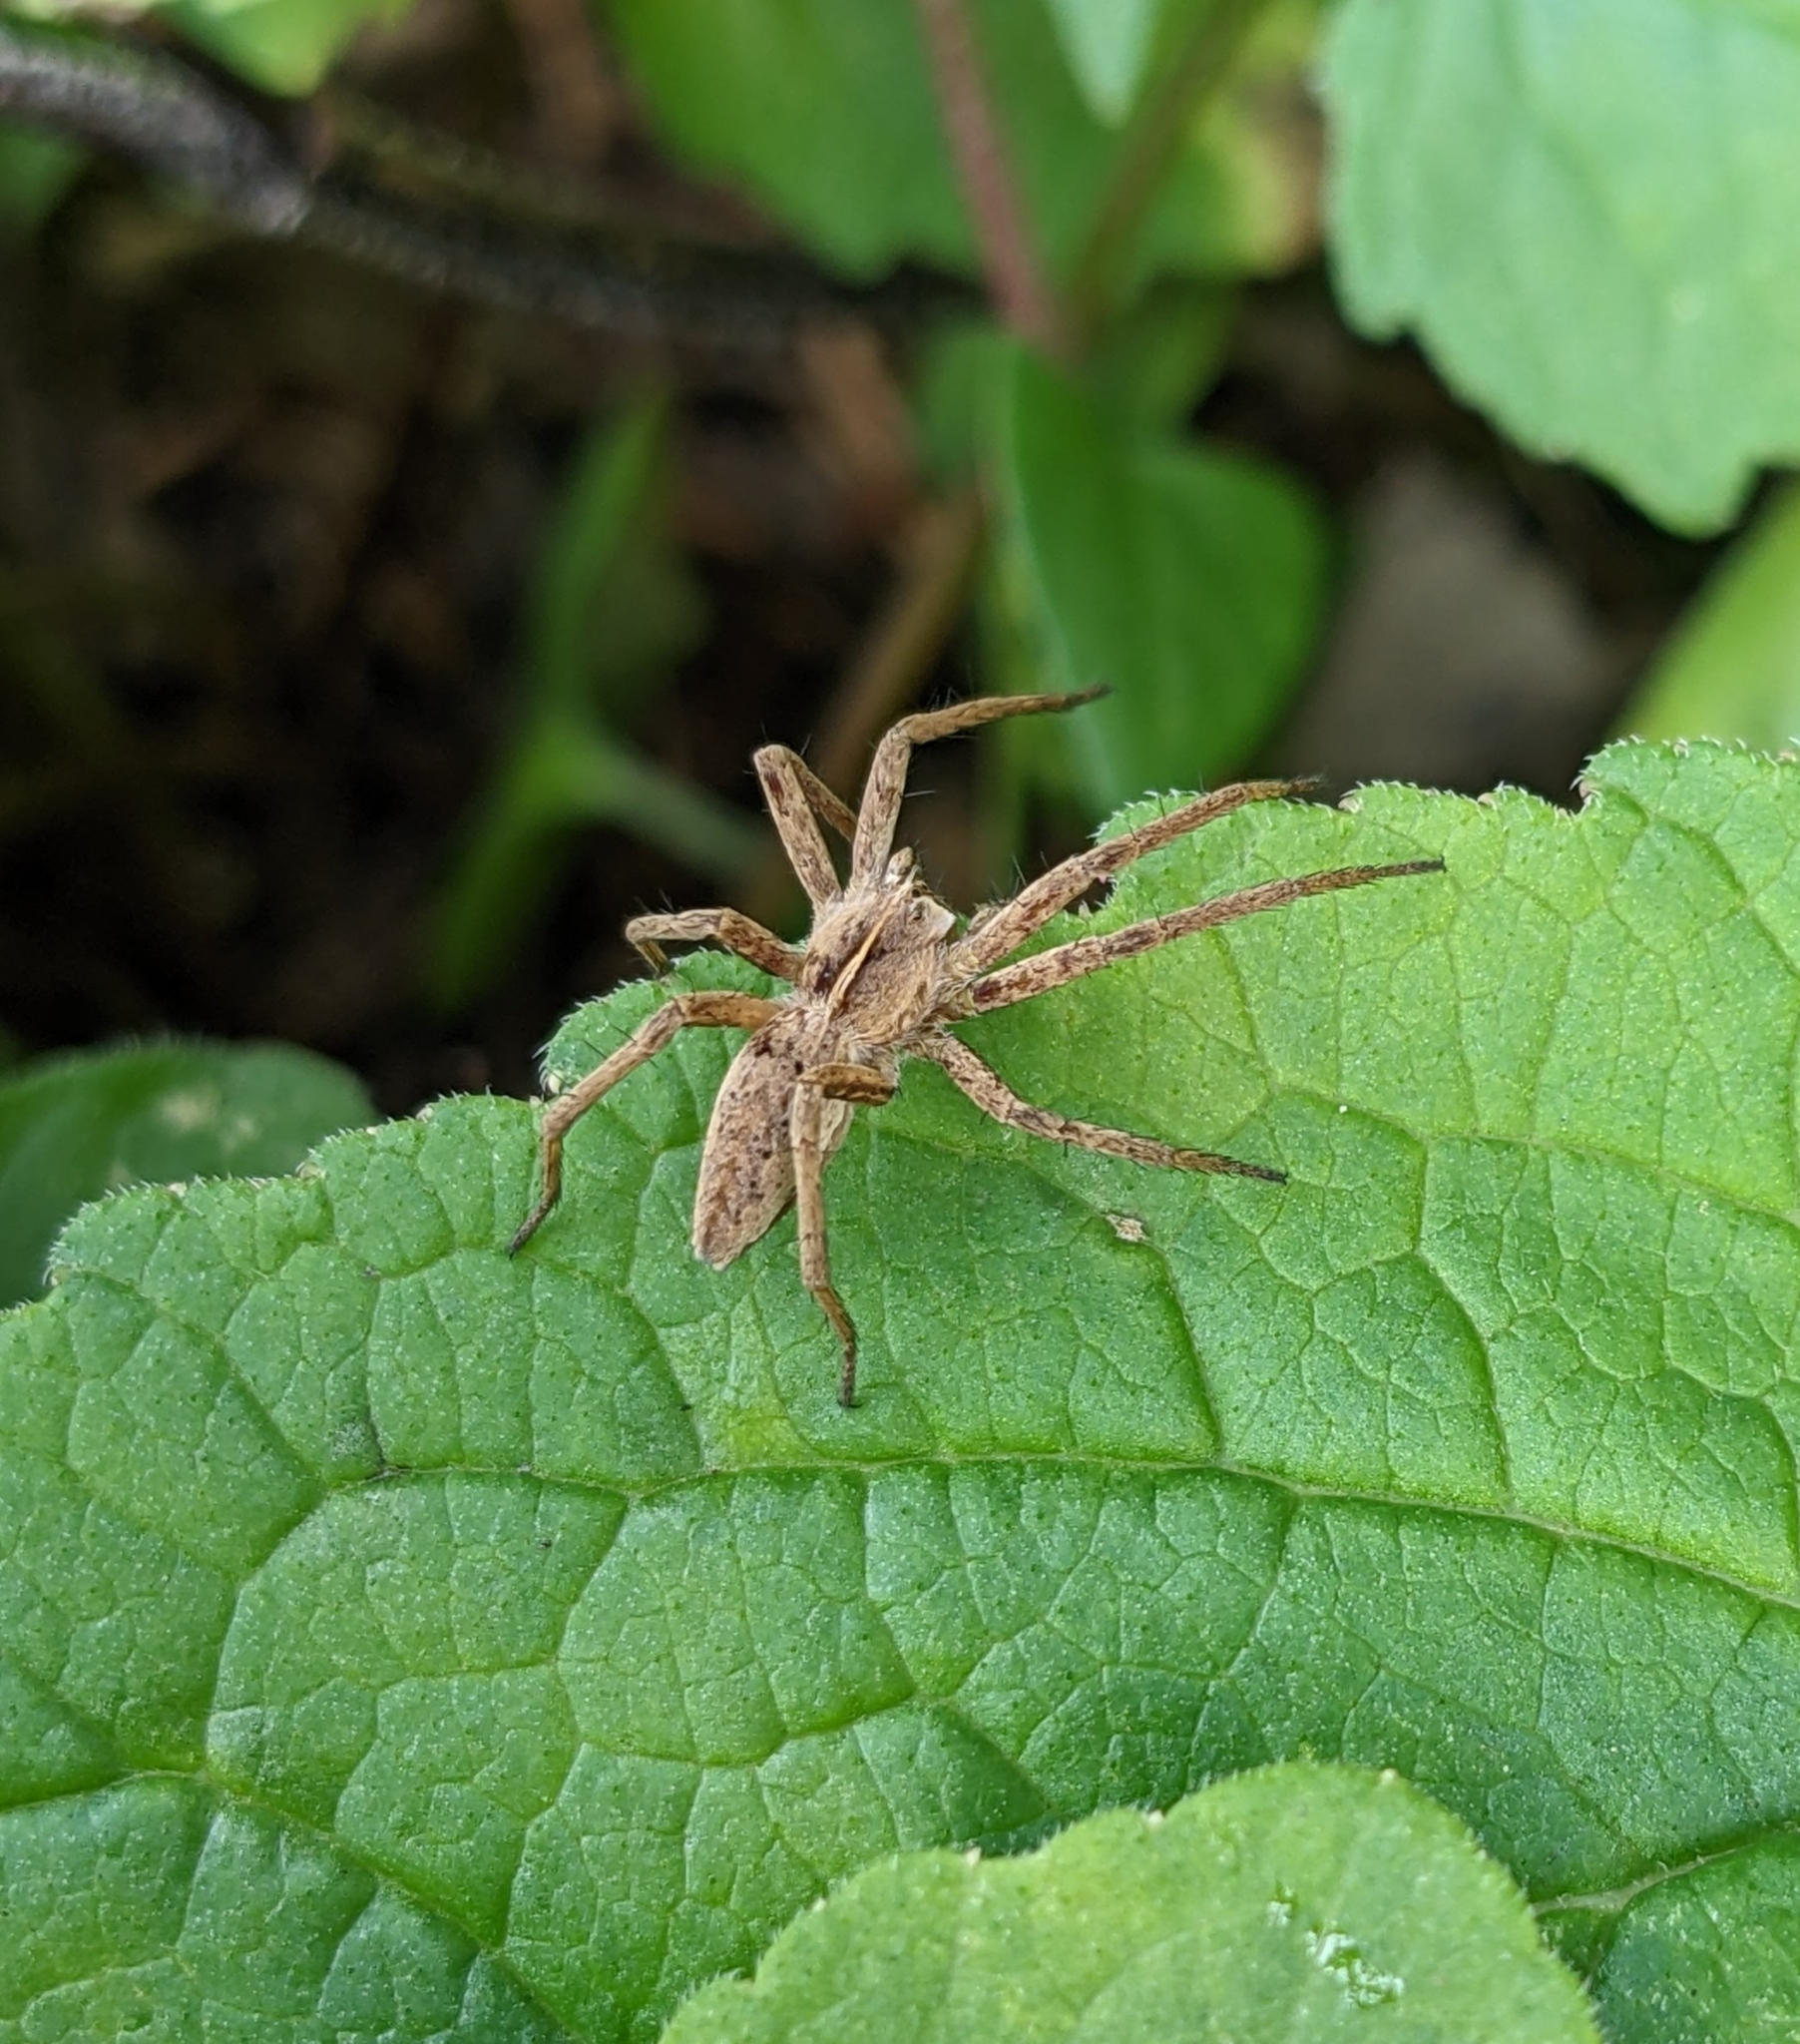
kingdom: Animalia
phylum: Arthropoda
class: Arachnida
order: Araneae
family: Pisauridae
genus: Pisaura
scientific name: Pisaura mirabilis
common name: Tent spider
